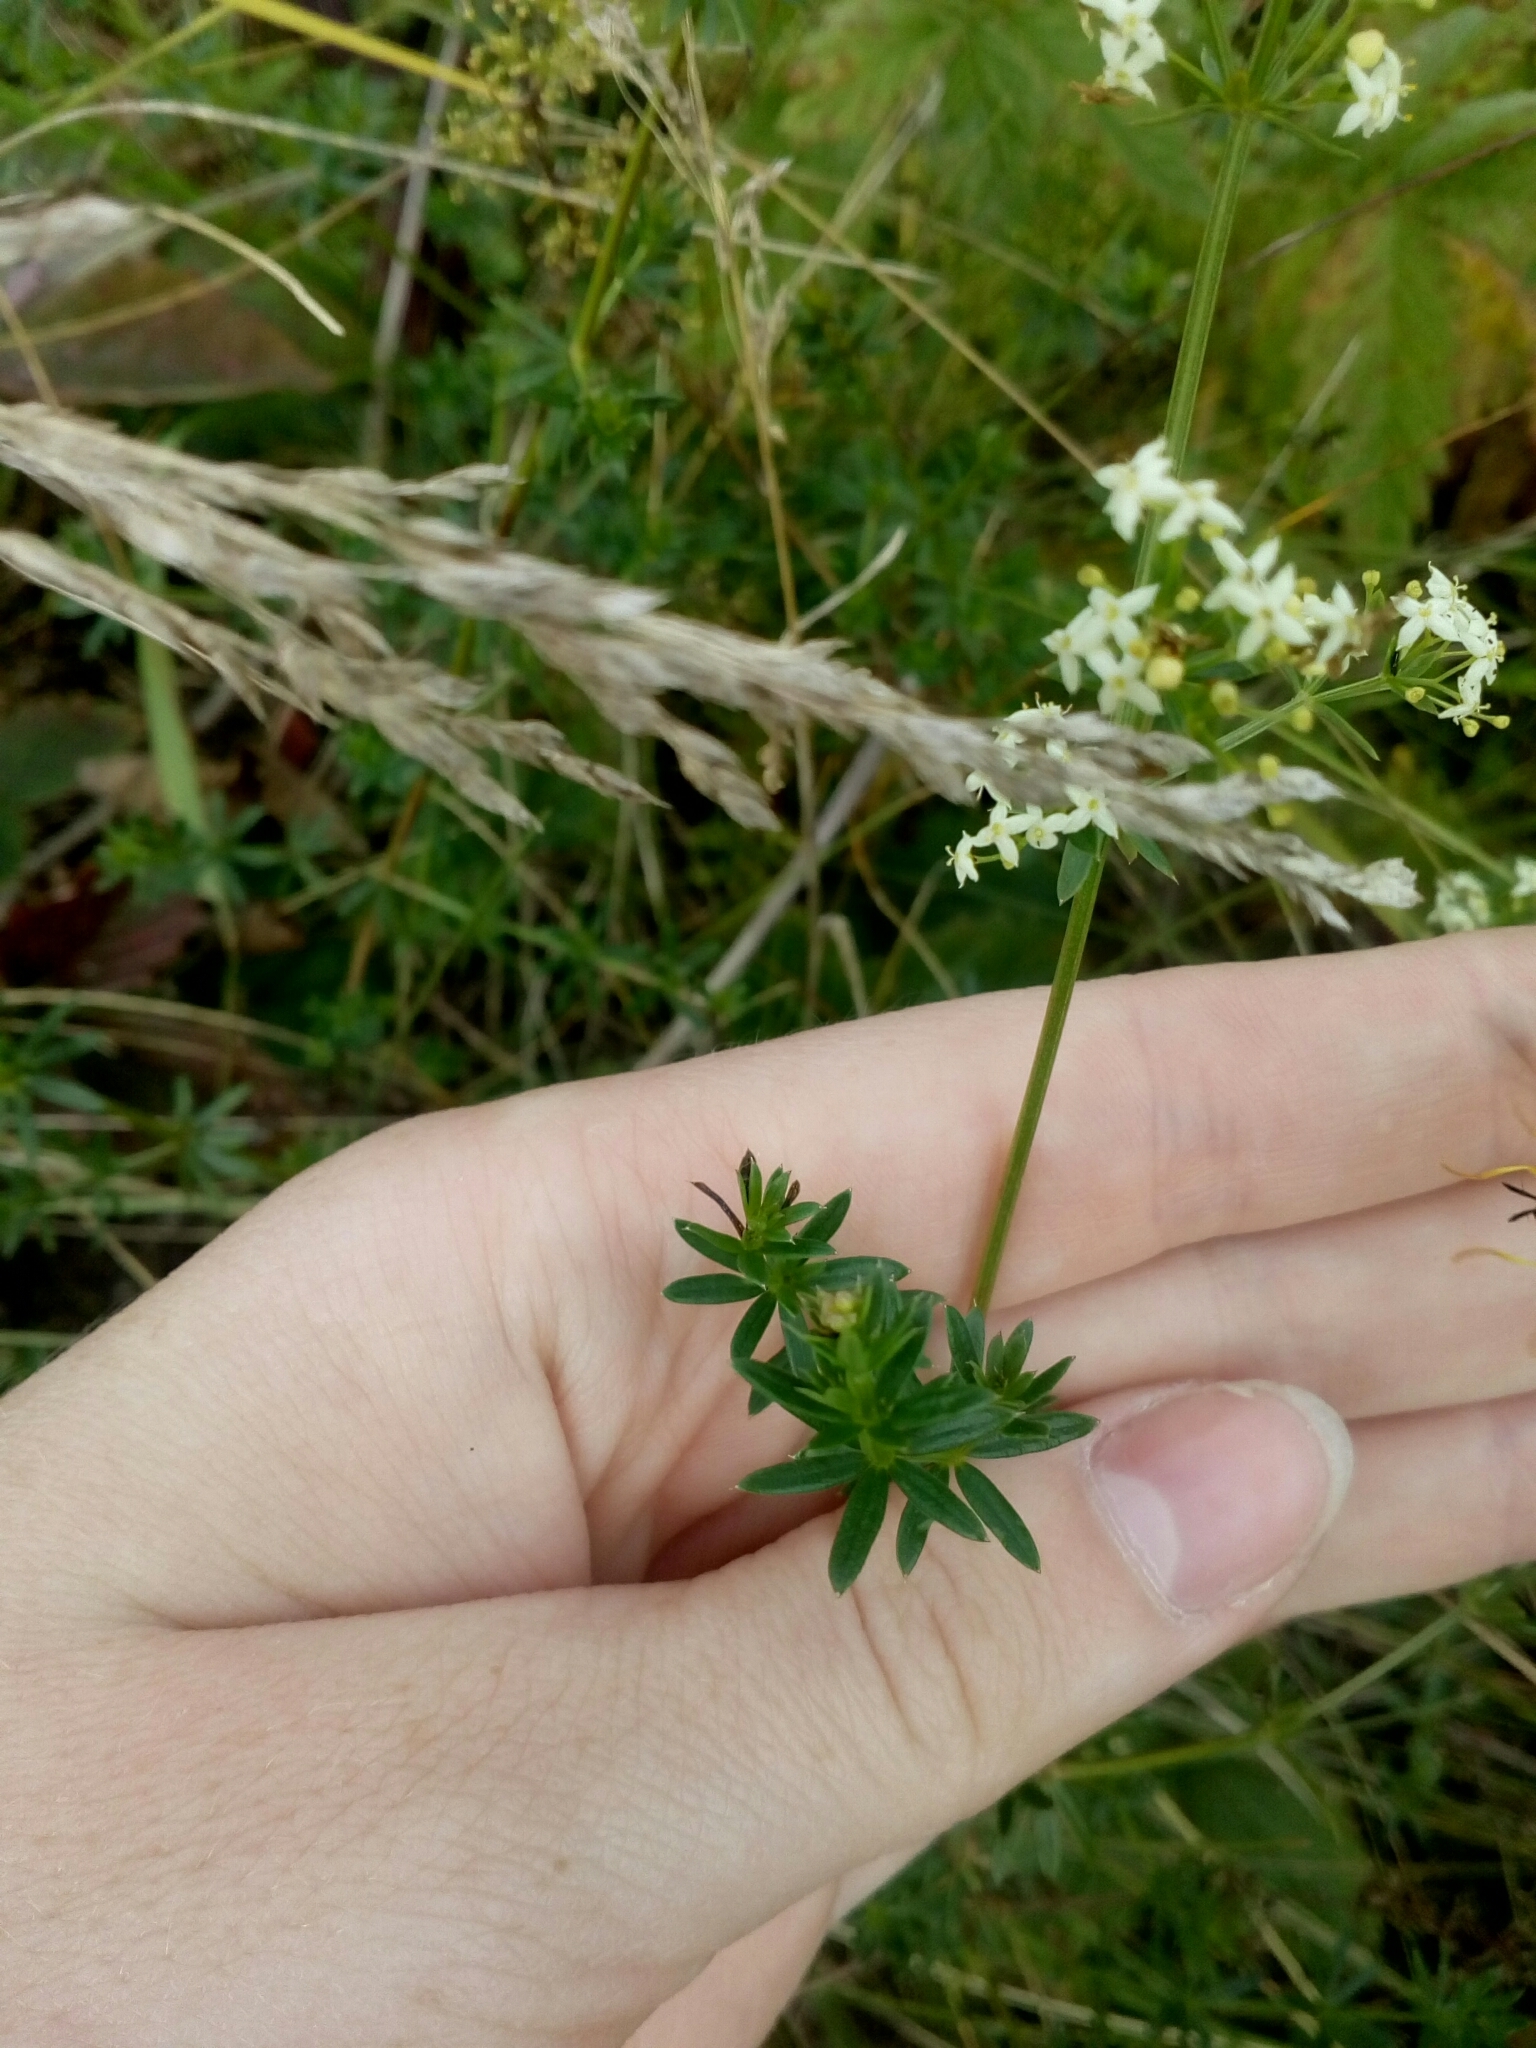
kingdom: Plantae
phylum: Tracheophyta
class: Magnoliopsida
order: Gentianales
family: Rubiaceae
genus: Galium
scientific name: Galium mollugo
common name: Hedge bedstraw
